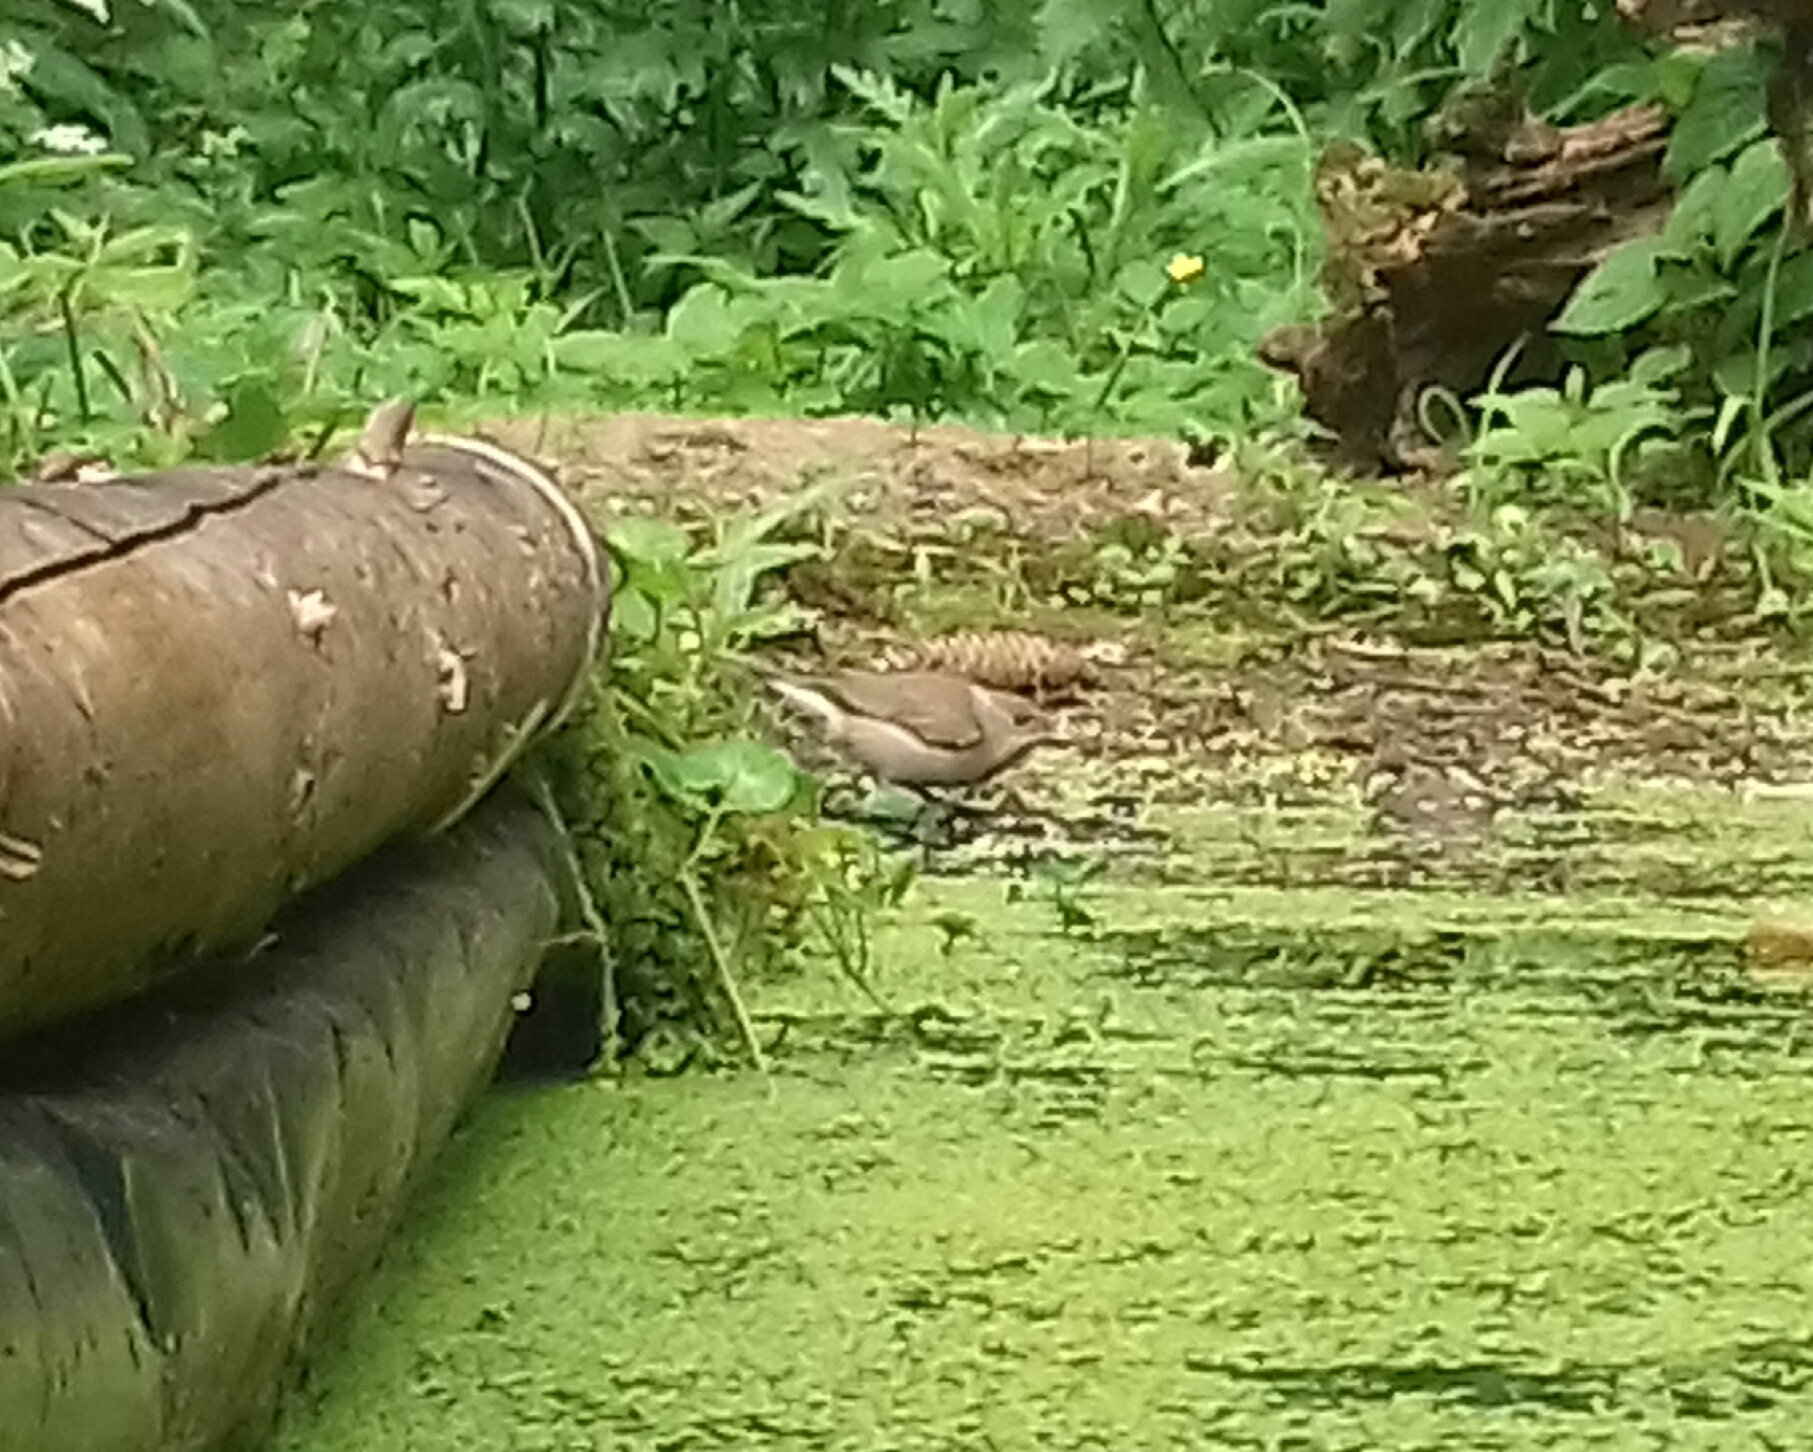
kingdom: Animalia
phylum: Chordata
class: Aves
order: Passeriformes
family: Sylviidae
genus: Sylvia
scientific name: Sylvia atricapilla
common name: Eurasian blackcap
